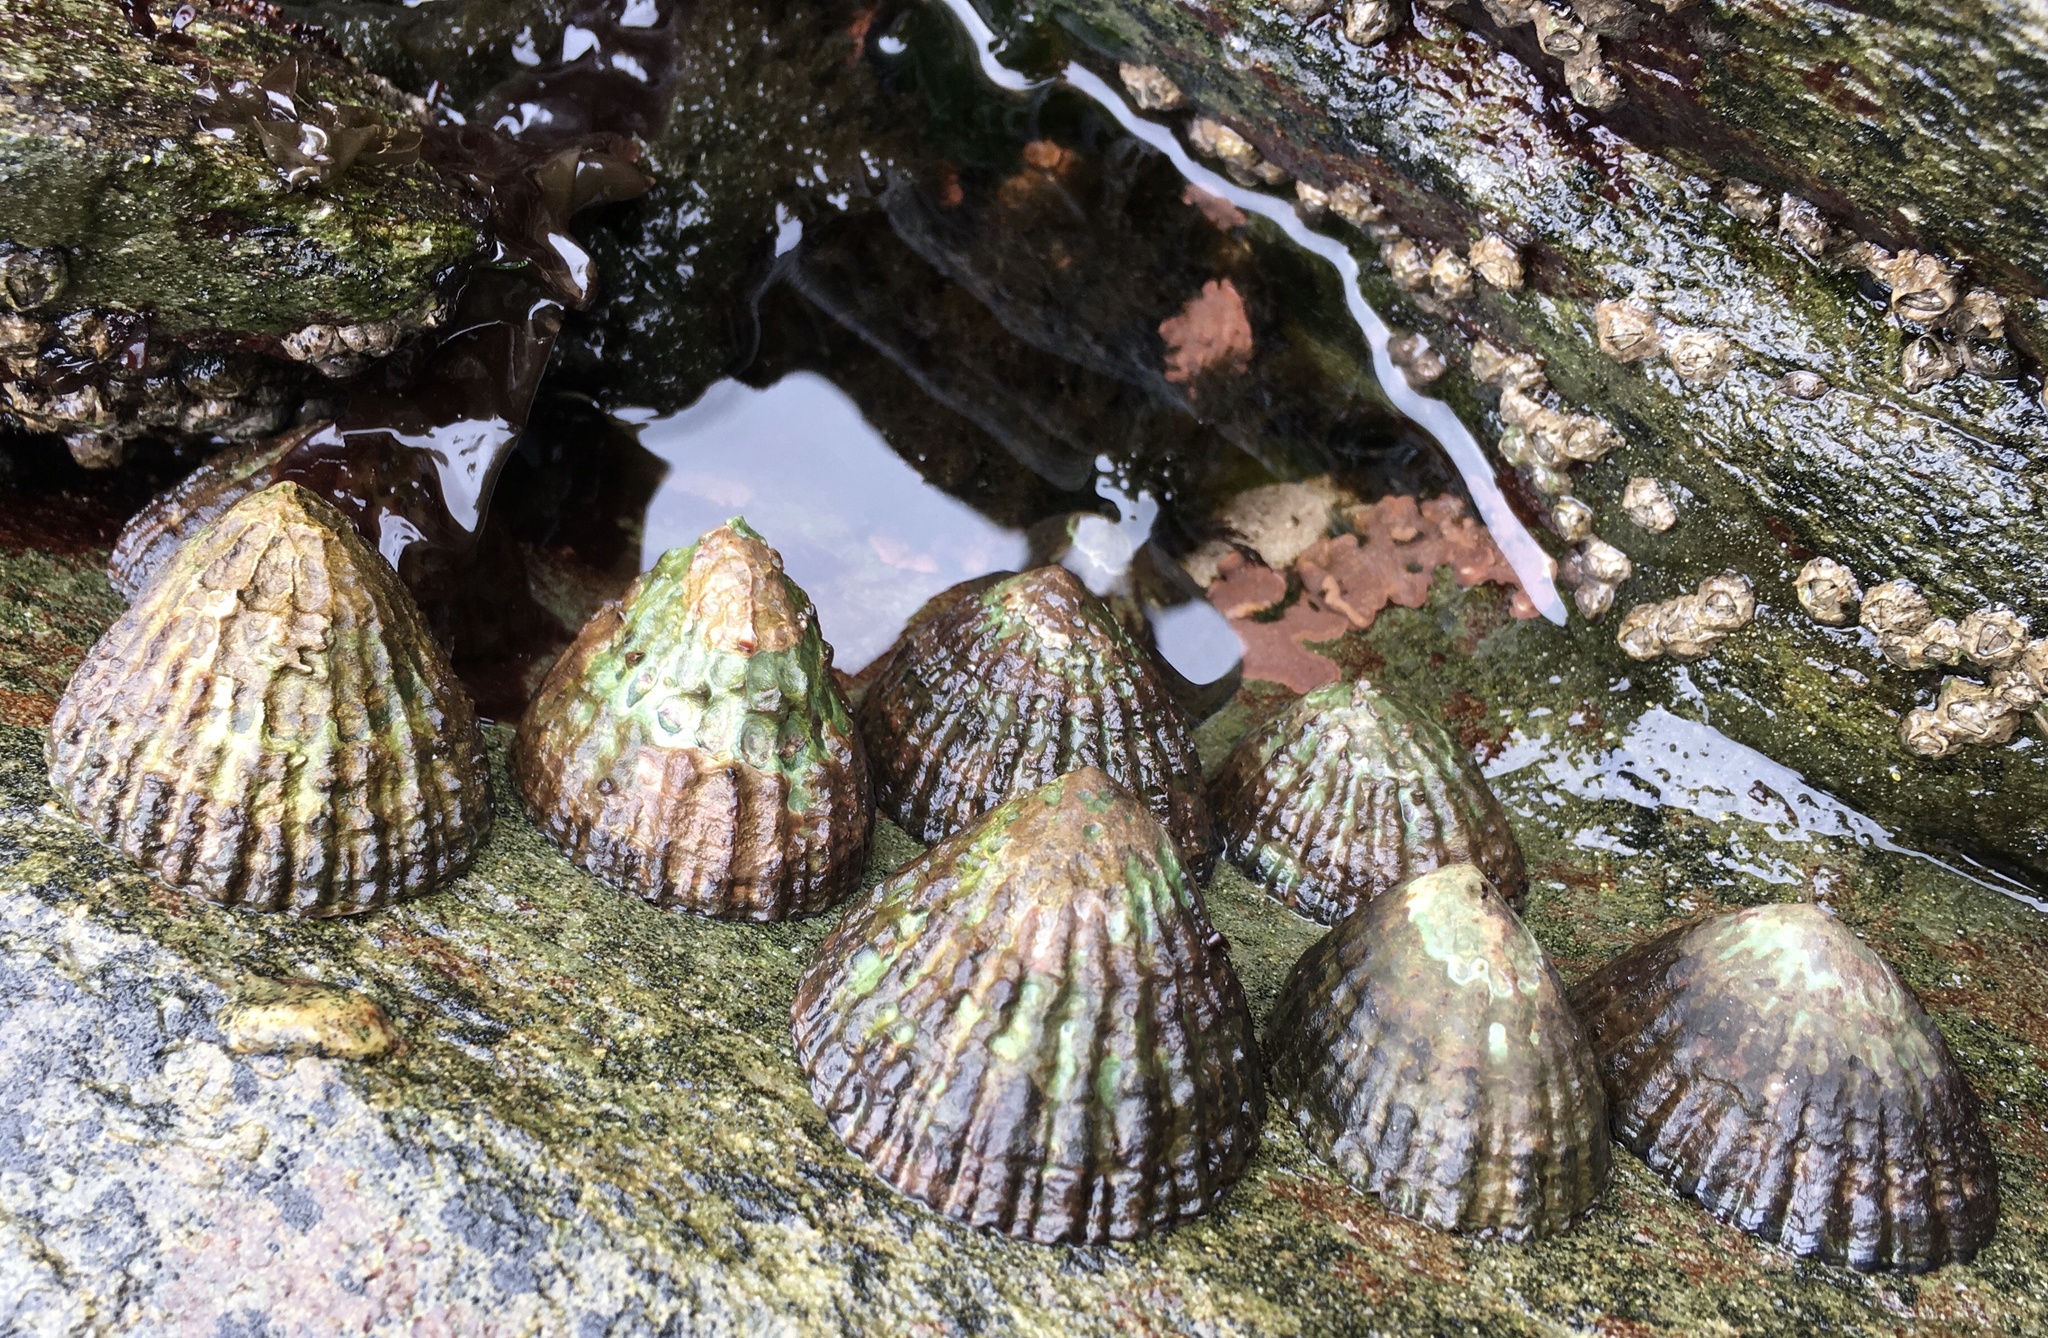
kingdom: Animalia
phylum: Mollusca
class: Gastropoda
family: Nacellidae
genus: Nacella
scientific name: Nacella magellanica
